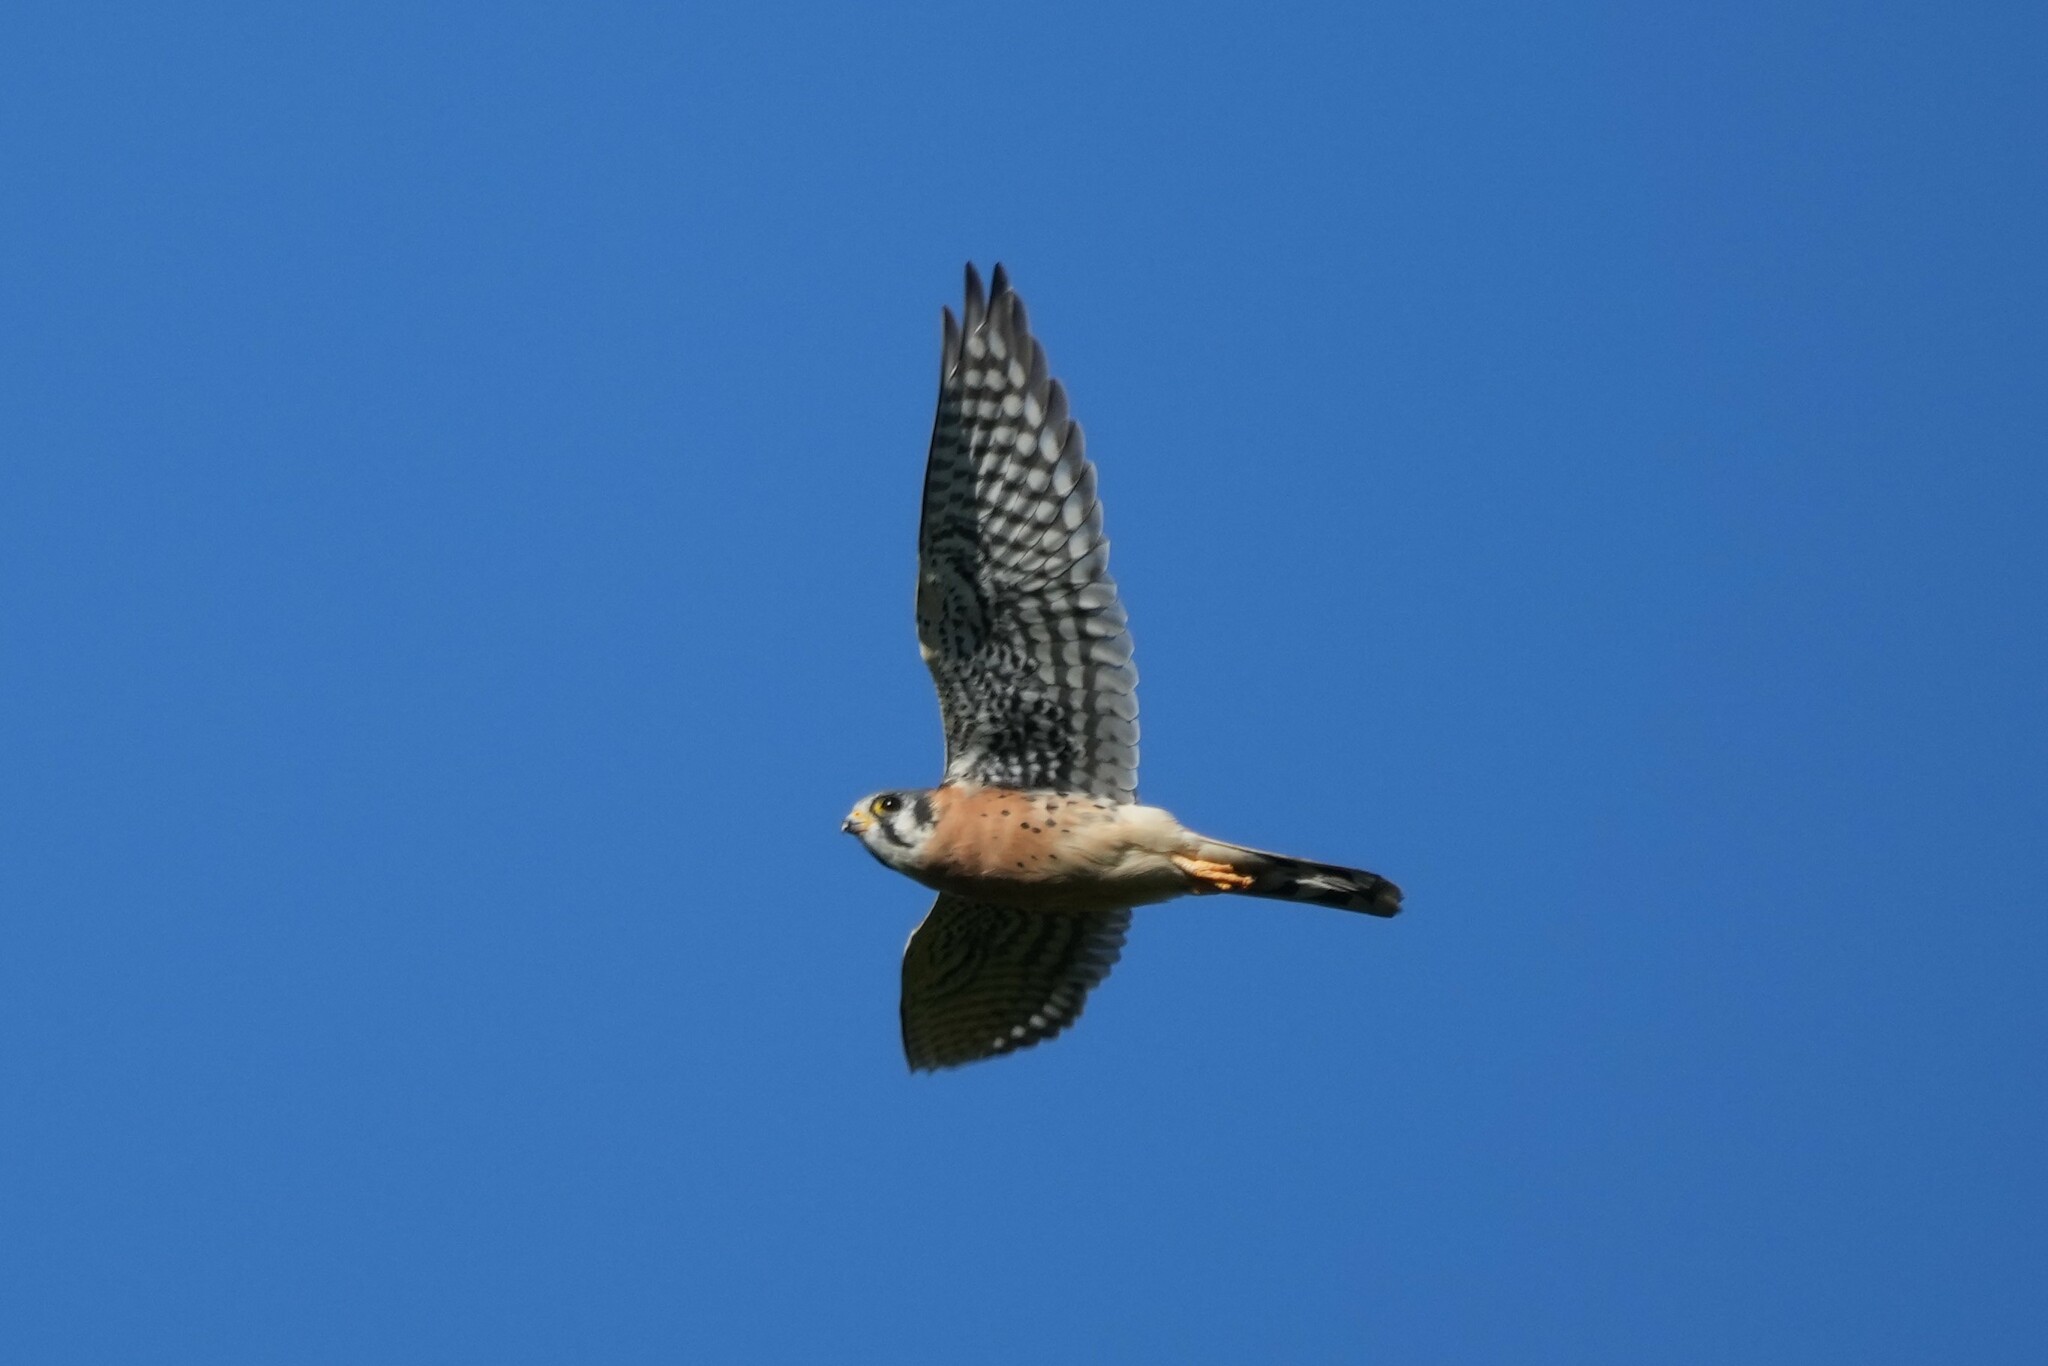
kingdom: Animalia
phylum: Chordata
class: Aves
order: Falconiformes
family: Falconidae
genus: Falco
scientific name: Falco sparverius
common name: American kestrel
